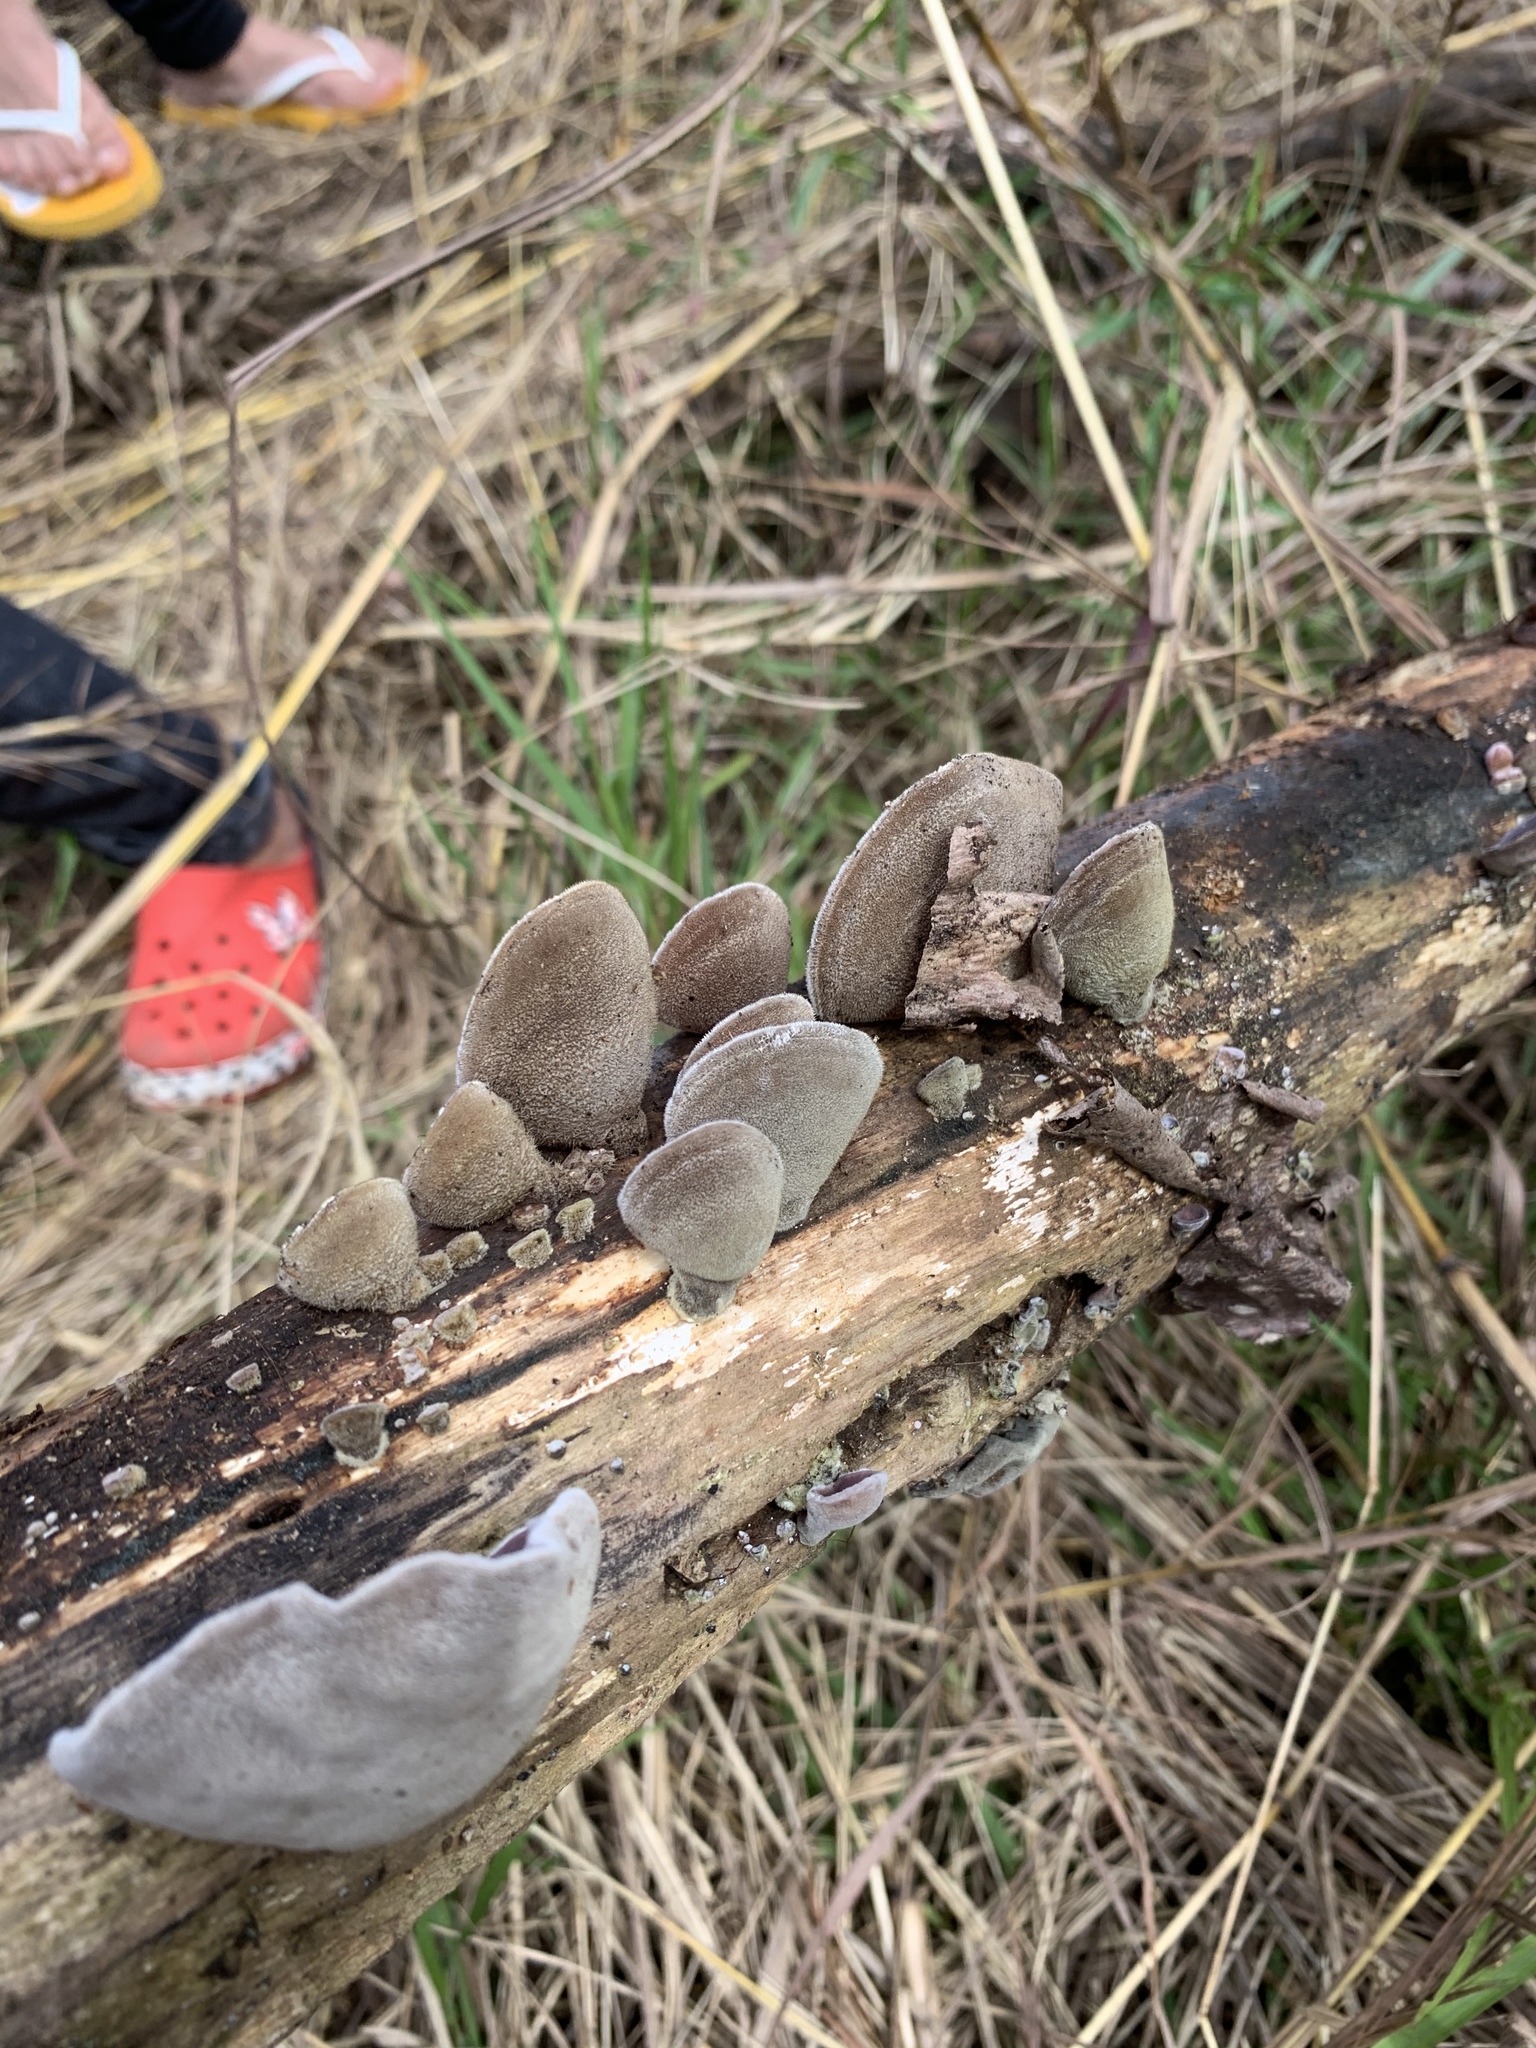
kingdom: Fungi
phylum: Basidiomycota
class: Agaricomycetes
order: Auriculariales
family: Auriculariaceae
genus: Auricularia
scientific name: Auricularia nigricans
